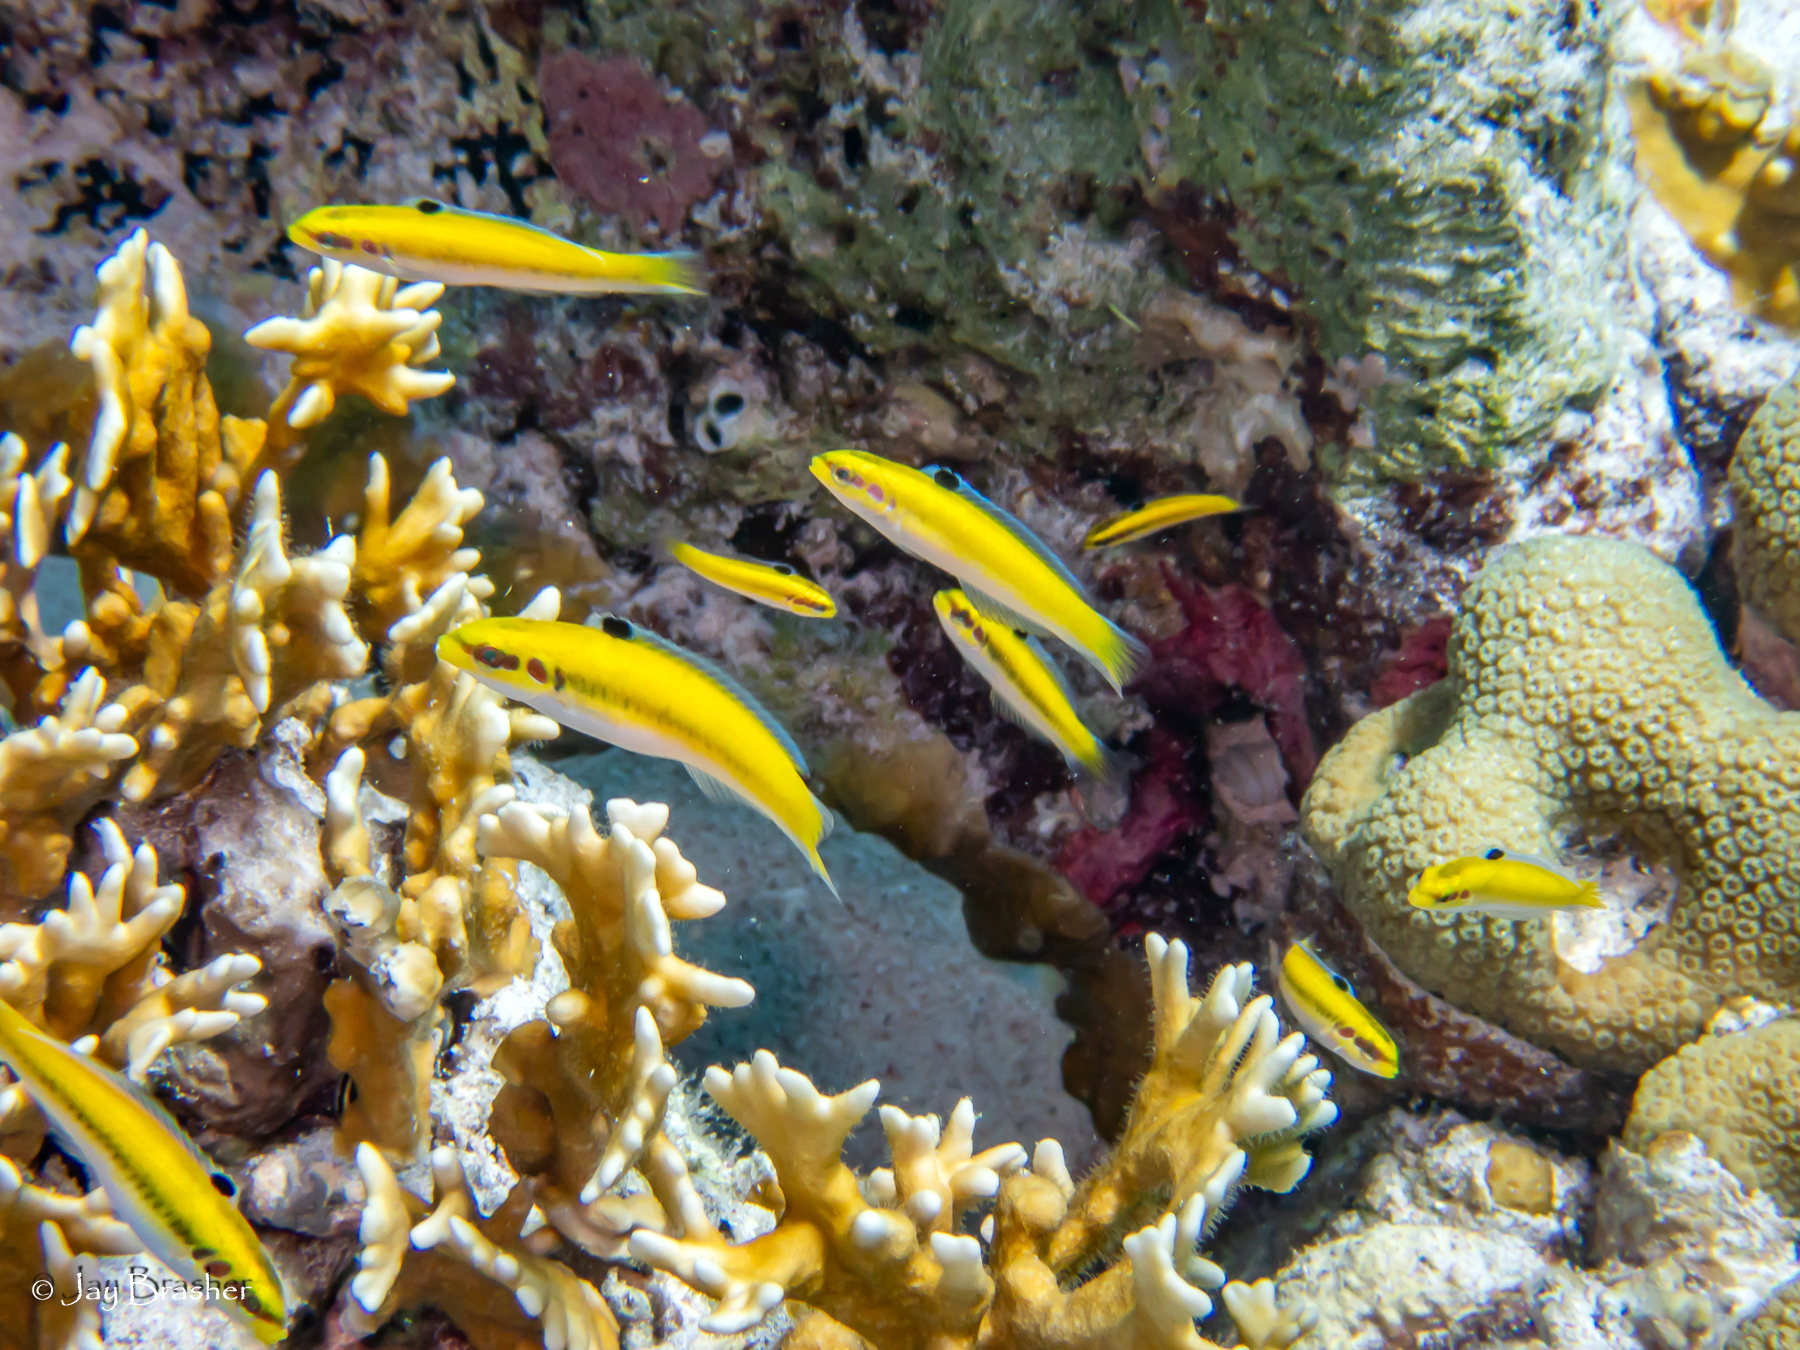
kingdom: Animalia
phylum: Chordata
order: Perciformes
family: Labridae
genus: Thalassoma
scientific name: Thalassoma bifasciatum
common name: Bluehead wrasse
